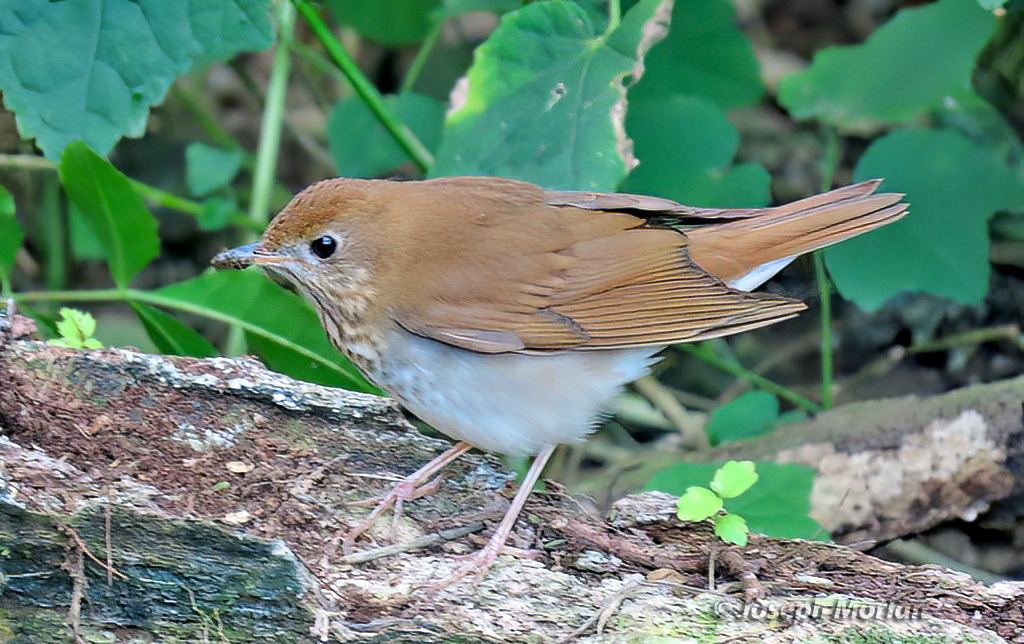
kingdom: Animalia
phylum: Chordata
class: Aves
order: Passeriformes
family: Turdidae
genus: Catharus
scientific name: Catharus fuscescens
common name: Veery
